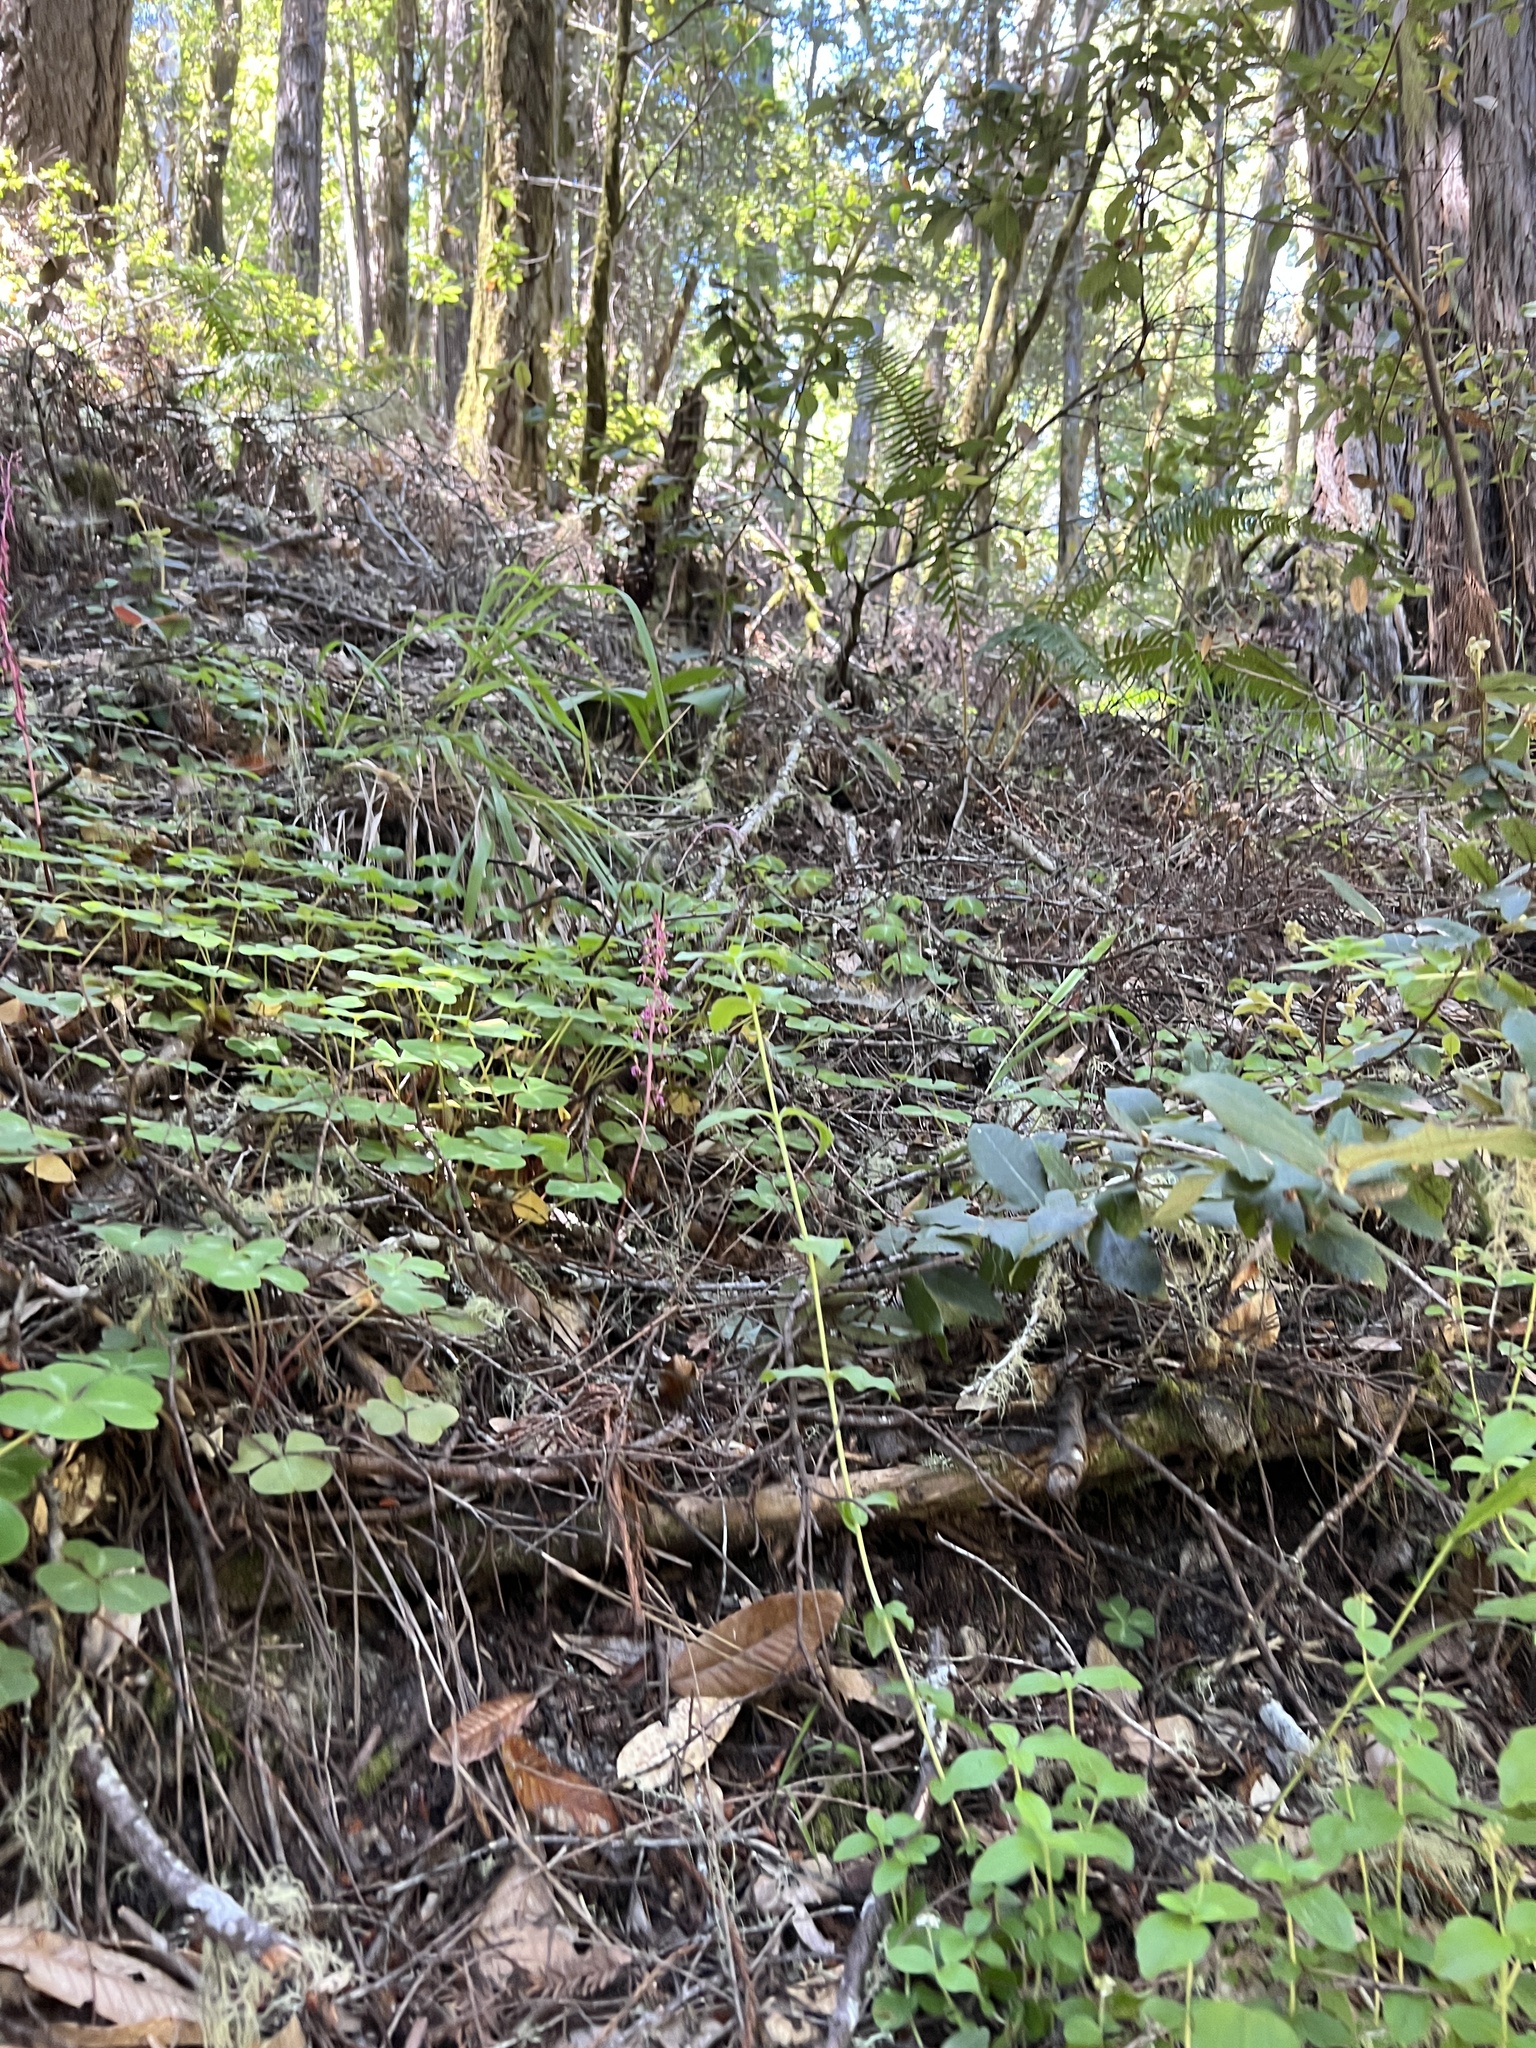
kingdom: Plantae
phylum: Tracheophyta
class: Liliopsida
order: Asparagales
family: Orchidaceae
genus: Corallorhiza
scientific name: Corallorhiza mertensiana
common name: Pacific coralroot
